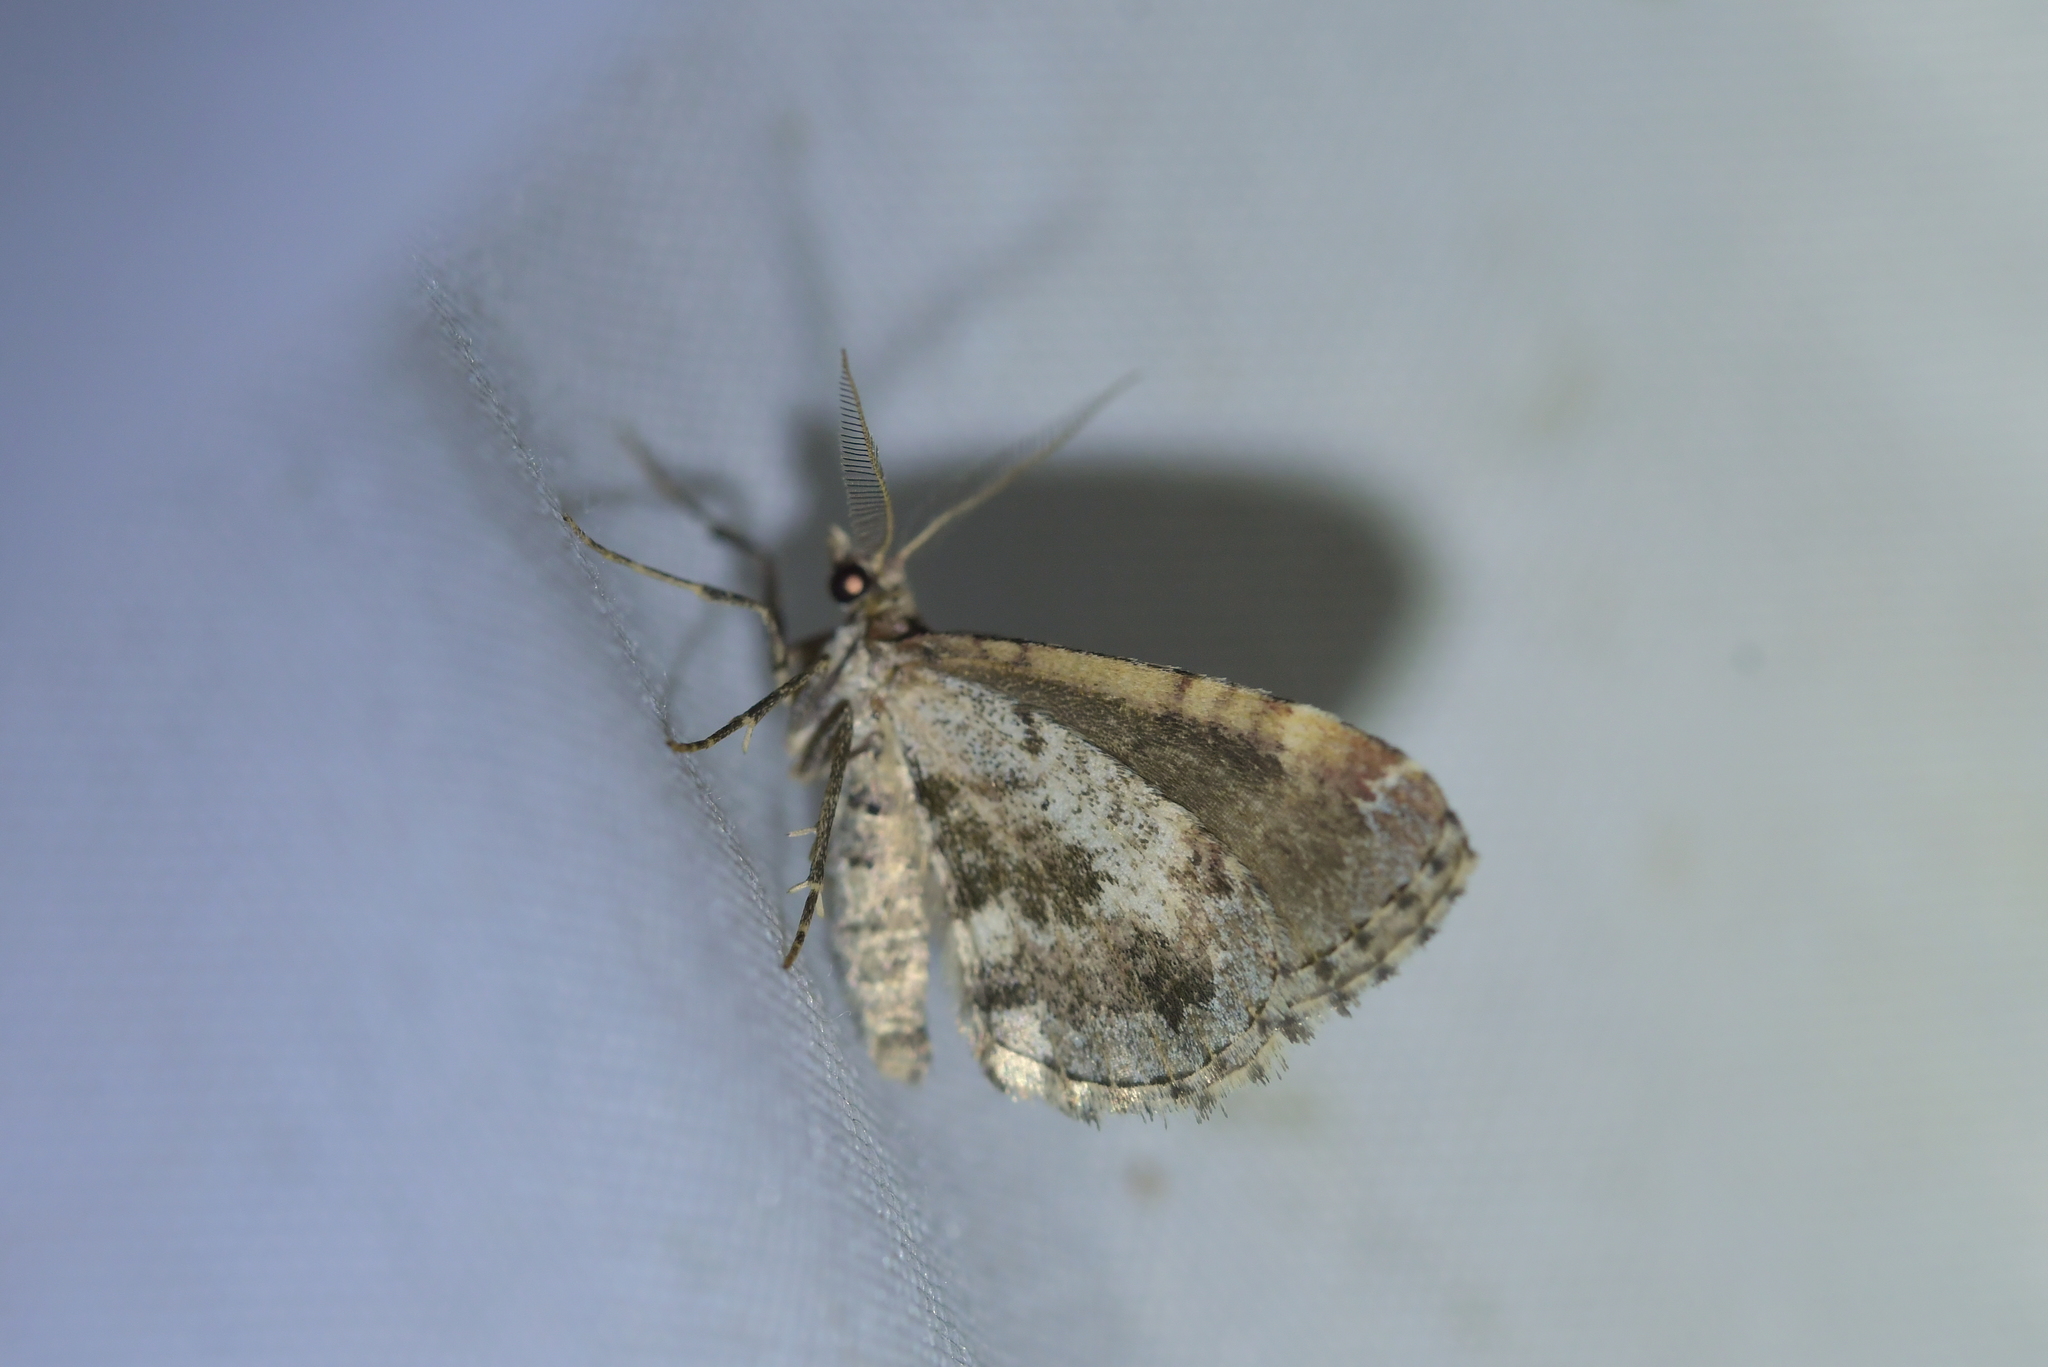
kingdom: Animalia
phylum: Arthropoda
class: Insecta
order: Lepidoptera
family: Geometridae
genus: Asaphodes
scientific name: Asaphodes aegrota
